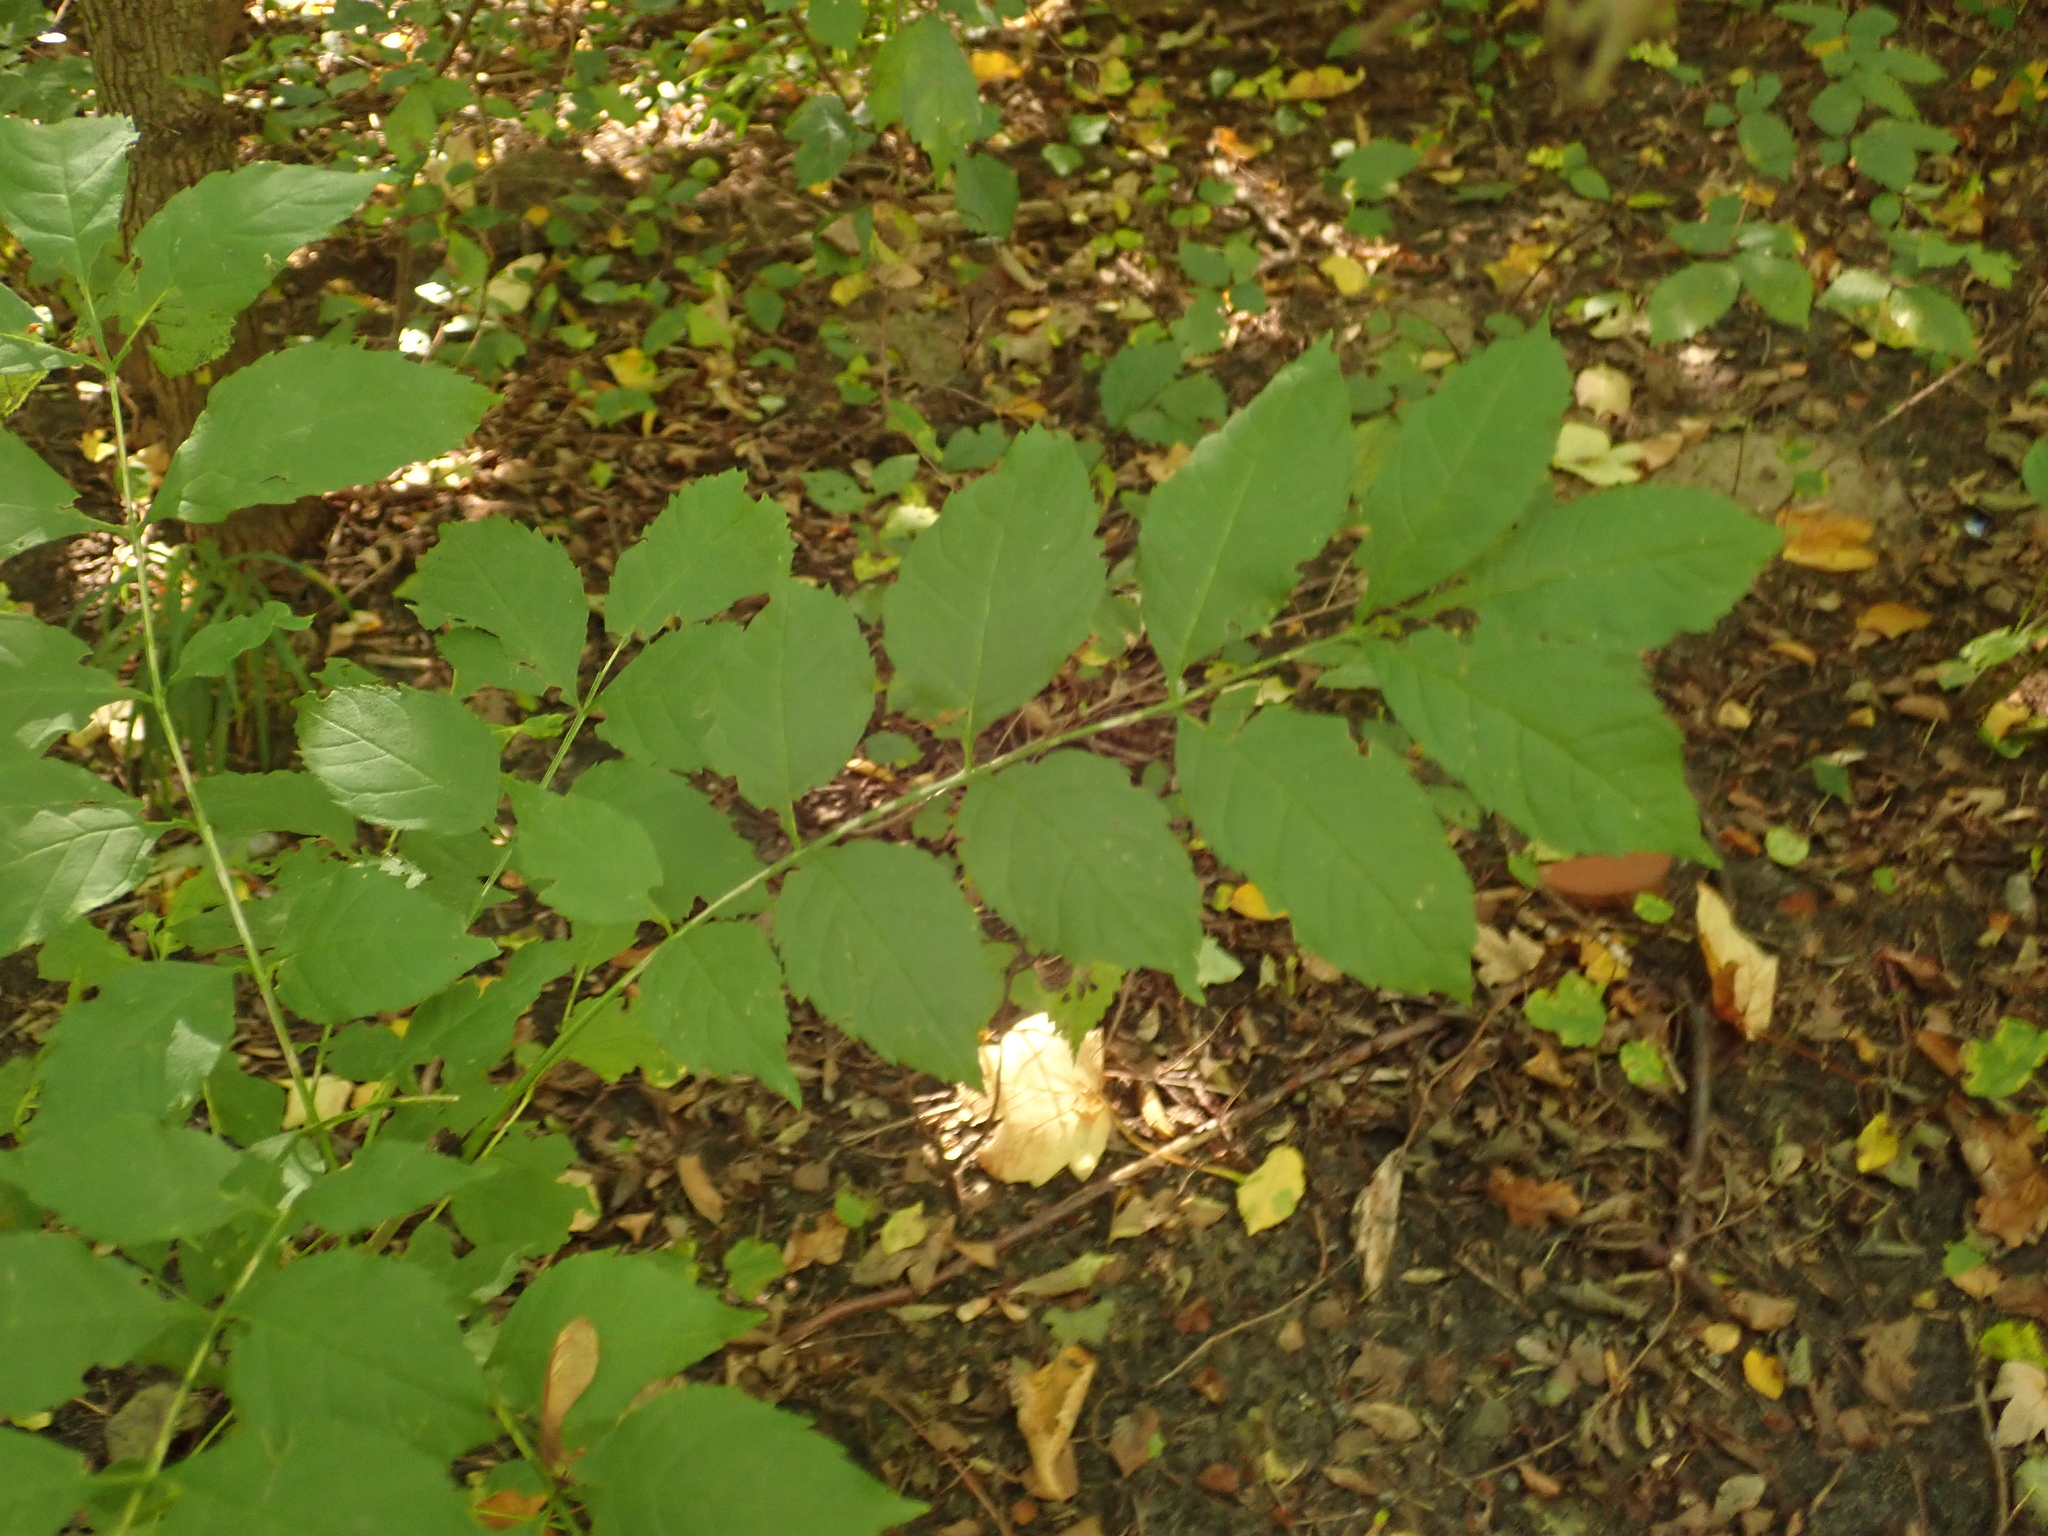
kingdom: Plantae
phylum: Tracheophyta
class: Magnoliopsida
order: Lamiales
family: Oleaceae
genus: Fraxinus
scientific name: Fraxinus excelsior
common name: European ash
